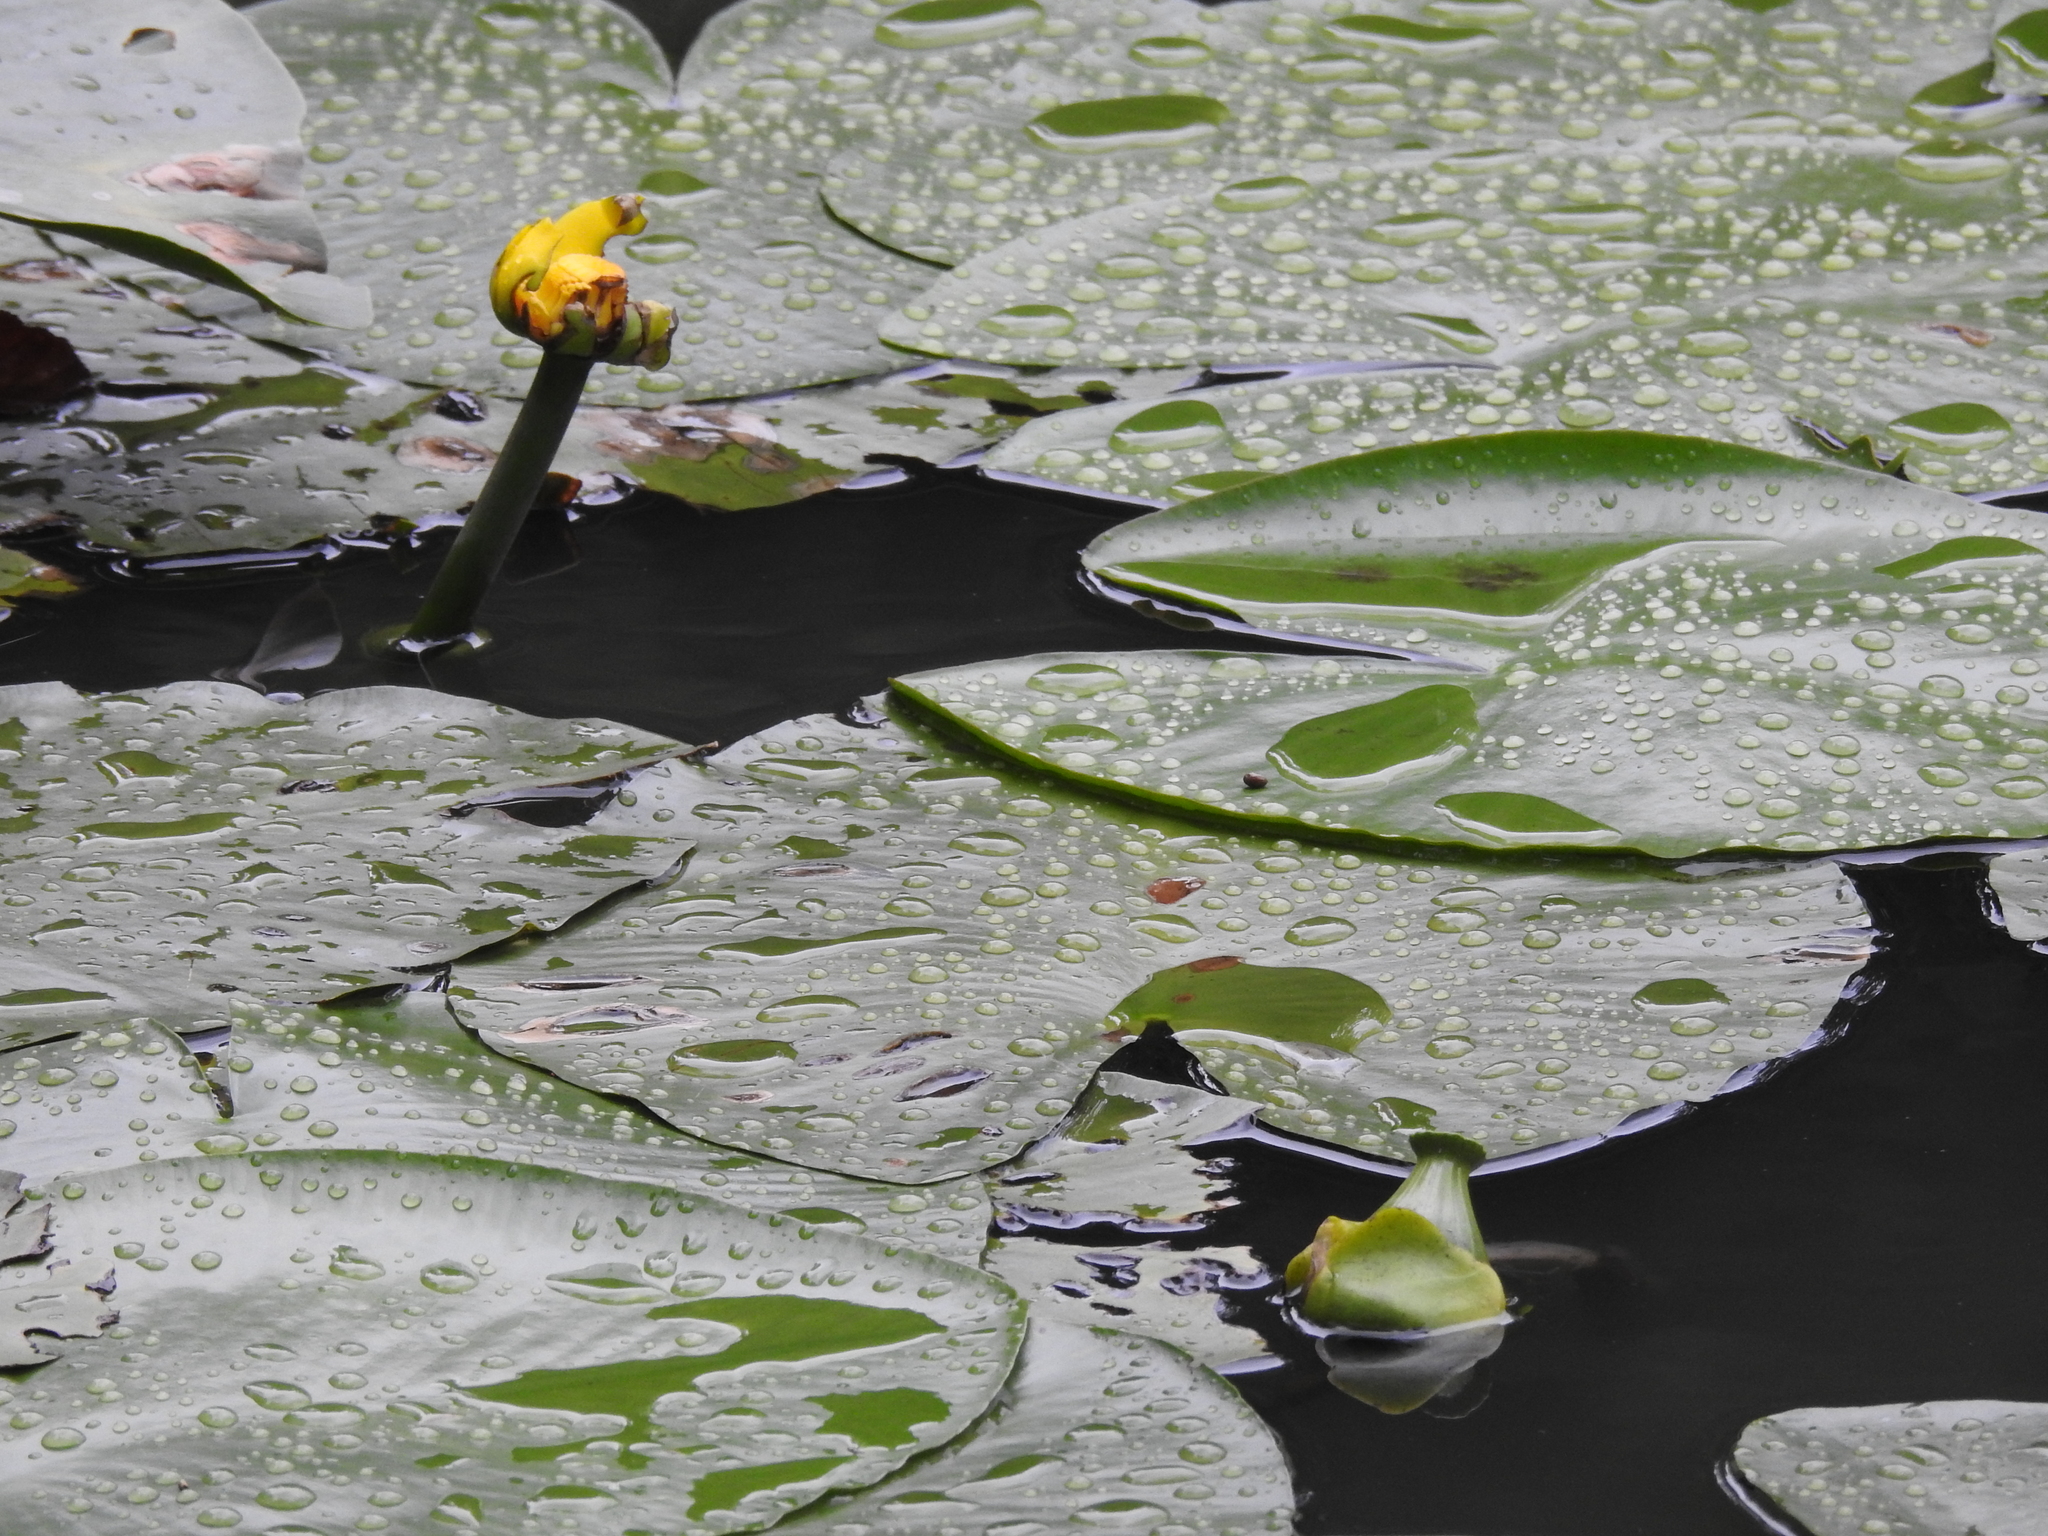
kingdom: Plantae
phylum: Tracheophyta
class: Magnoliopsida
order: Nymphaeales
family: Nymphaeaceae
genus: Nuphar
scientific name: Nuphar lutea
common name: Yellow water-lily
